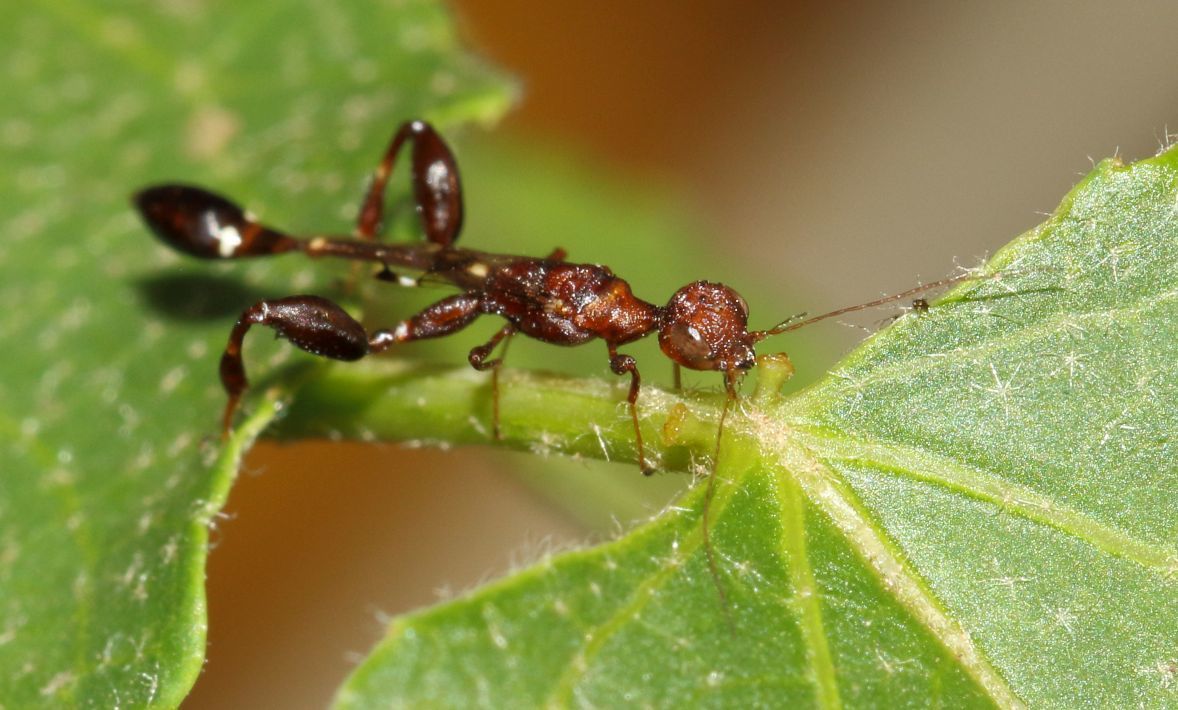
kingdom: Plantae
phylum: Tracheophyta
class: Magnoliopsida
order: Malpighiales
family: Euphorbiaceae
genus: Croton
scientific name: Croton megalobotrys
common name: Large fever berry
